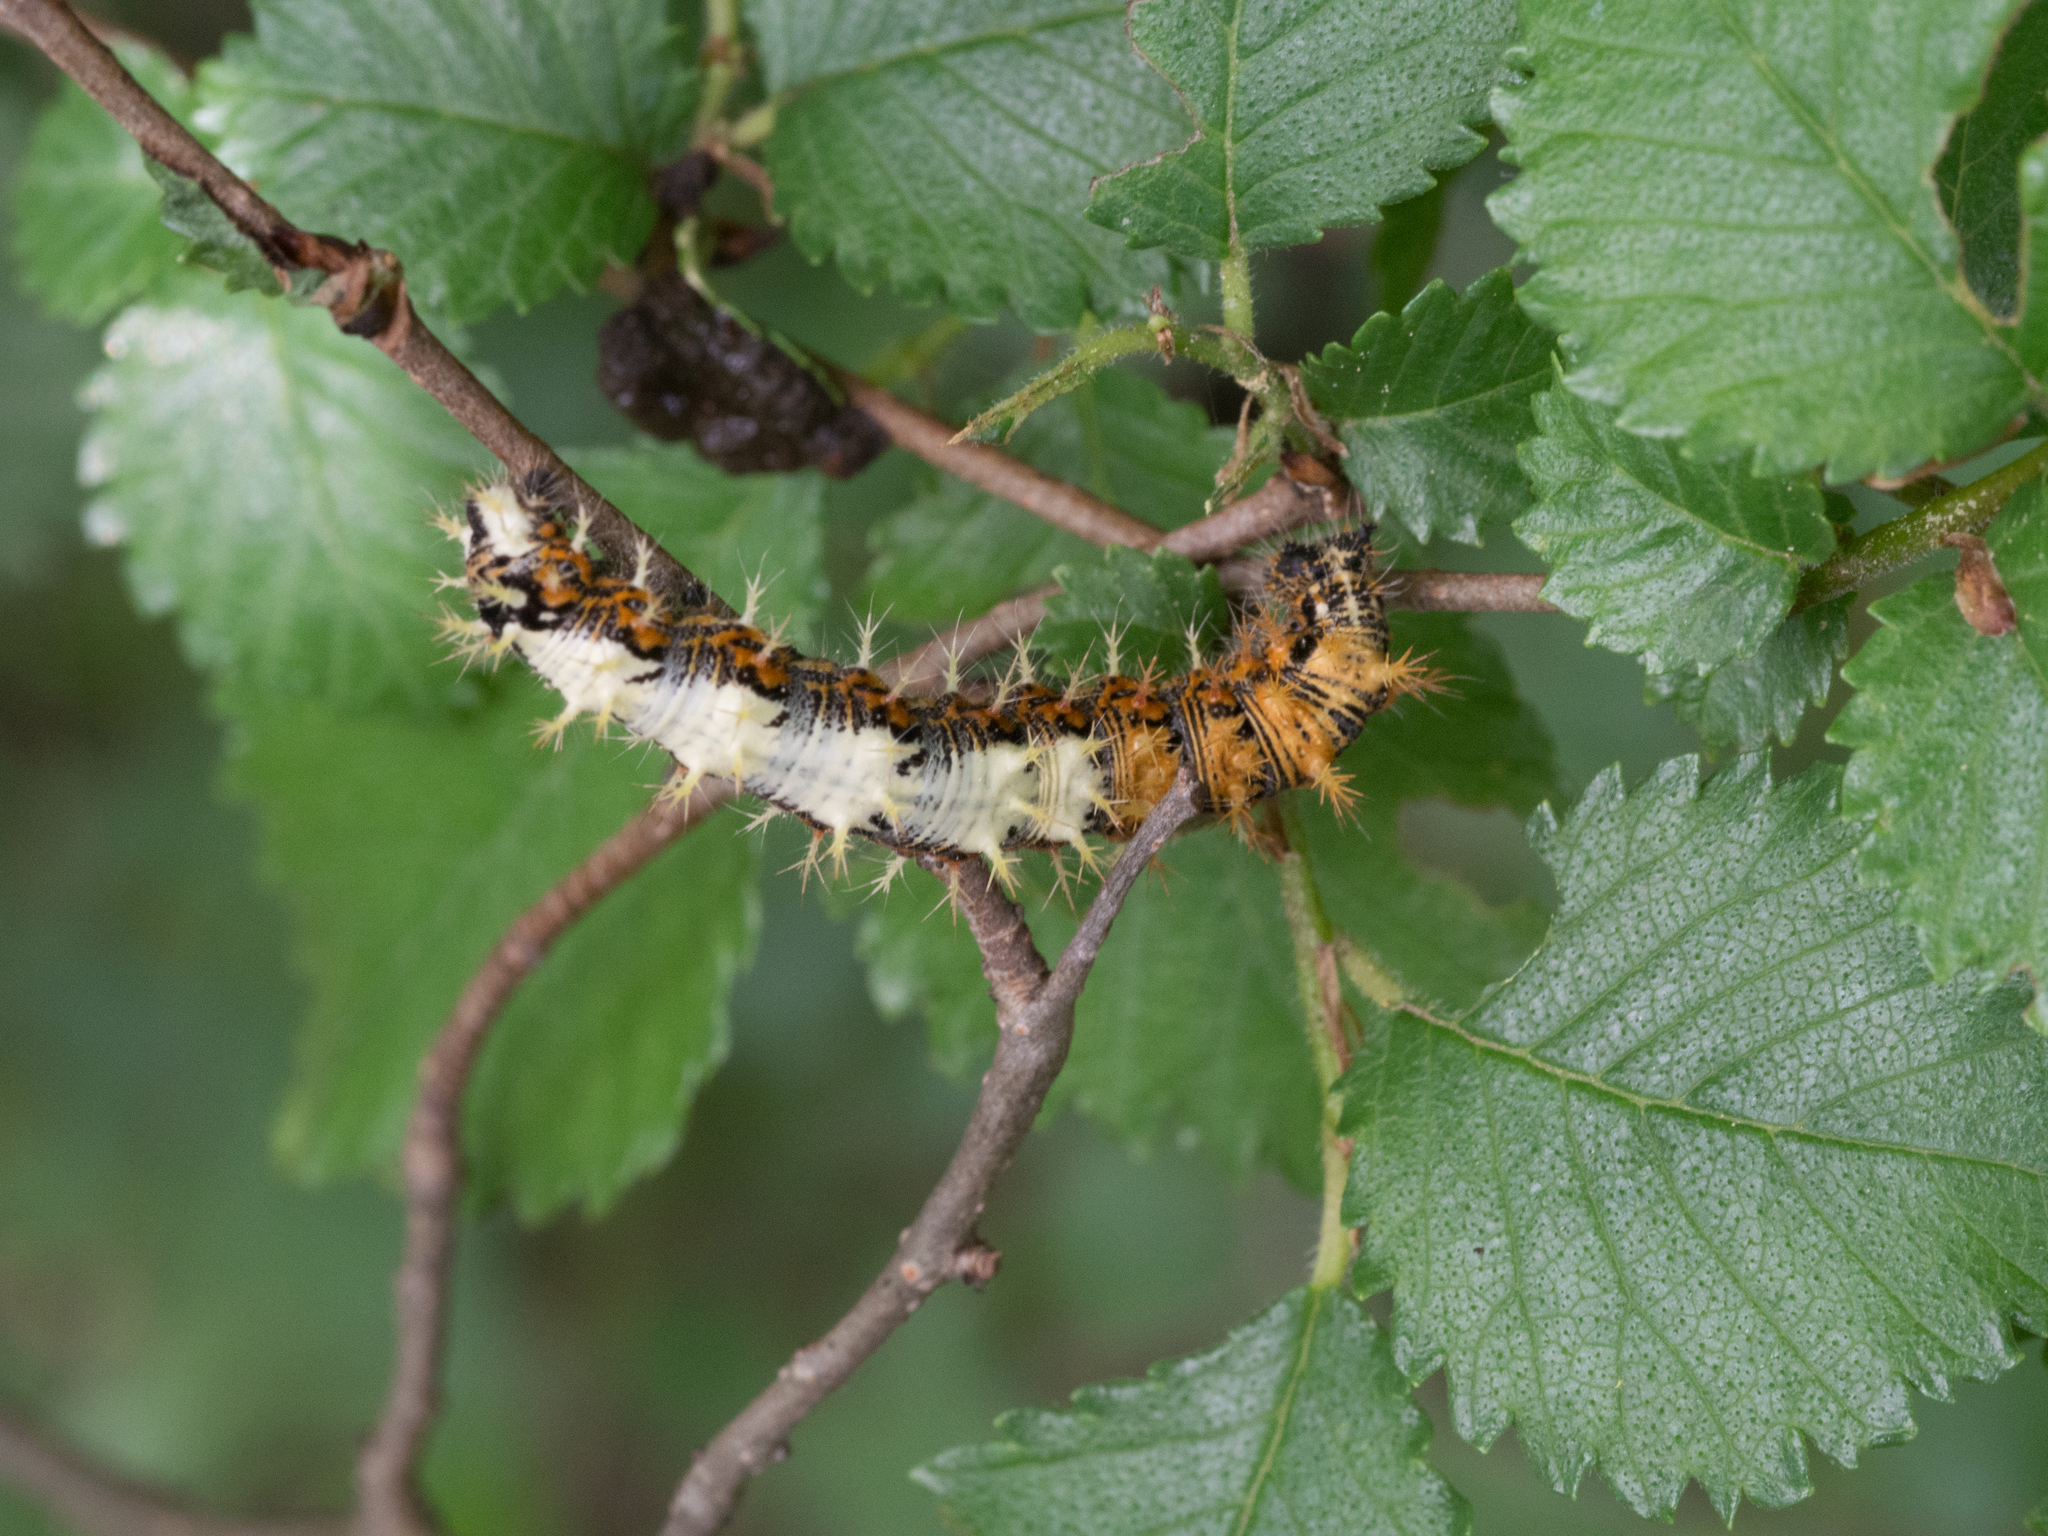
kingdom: Animalia
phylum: Arthropoda
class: Insecta
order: Lepidoptera
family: Nymphalidae
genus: Polygonia
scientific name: Polygonia c-album
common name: Comma
